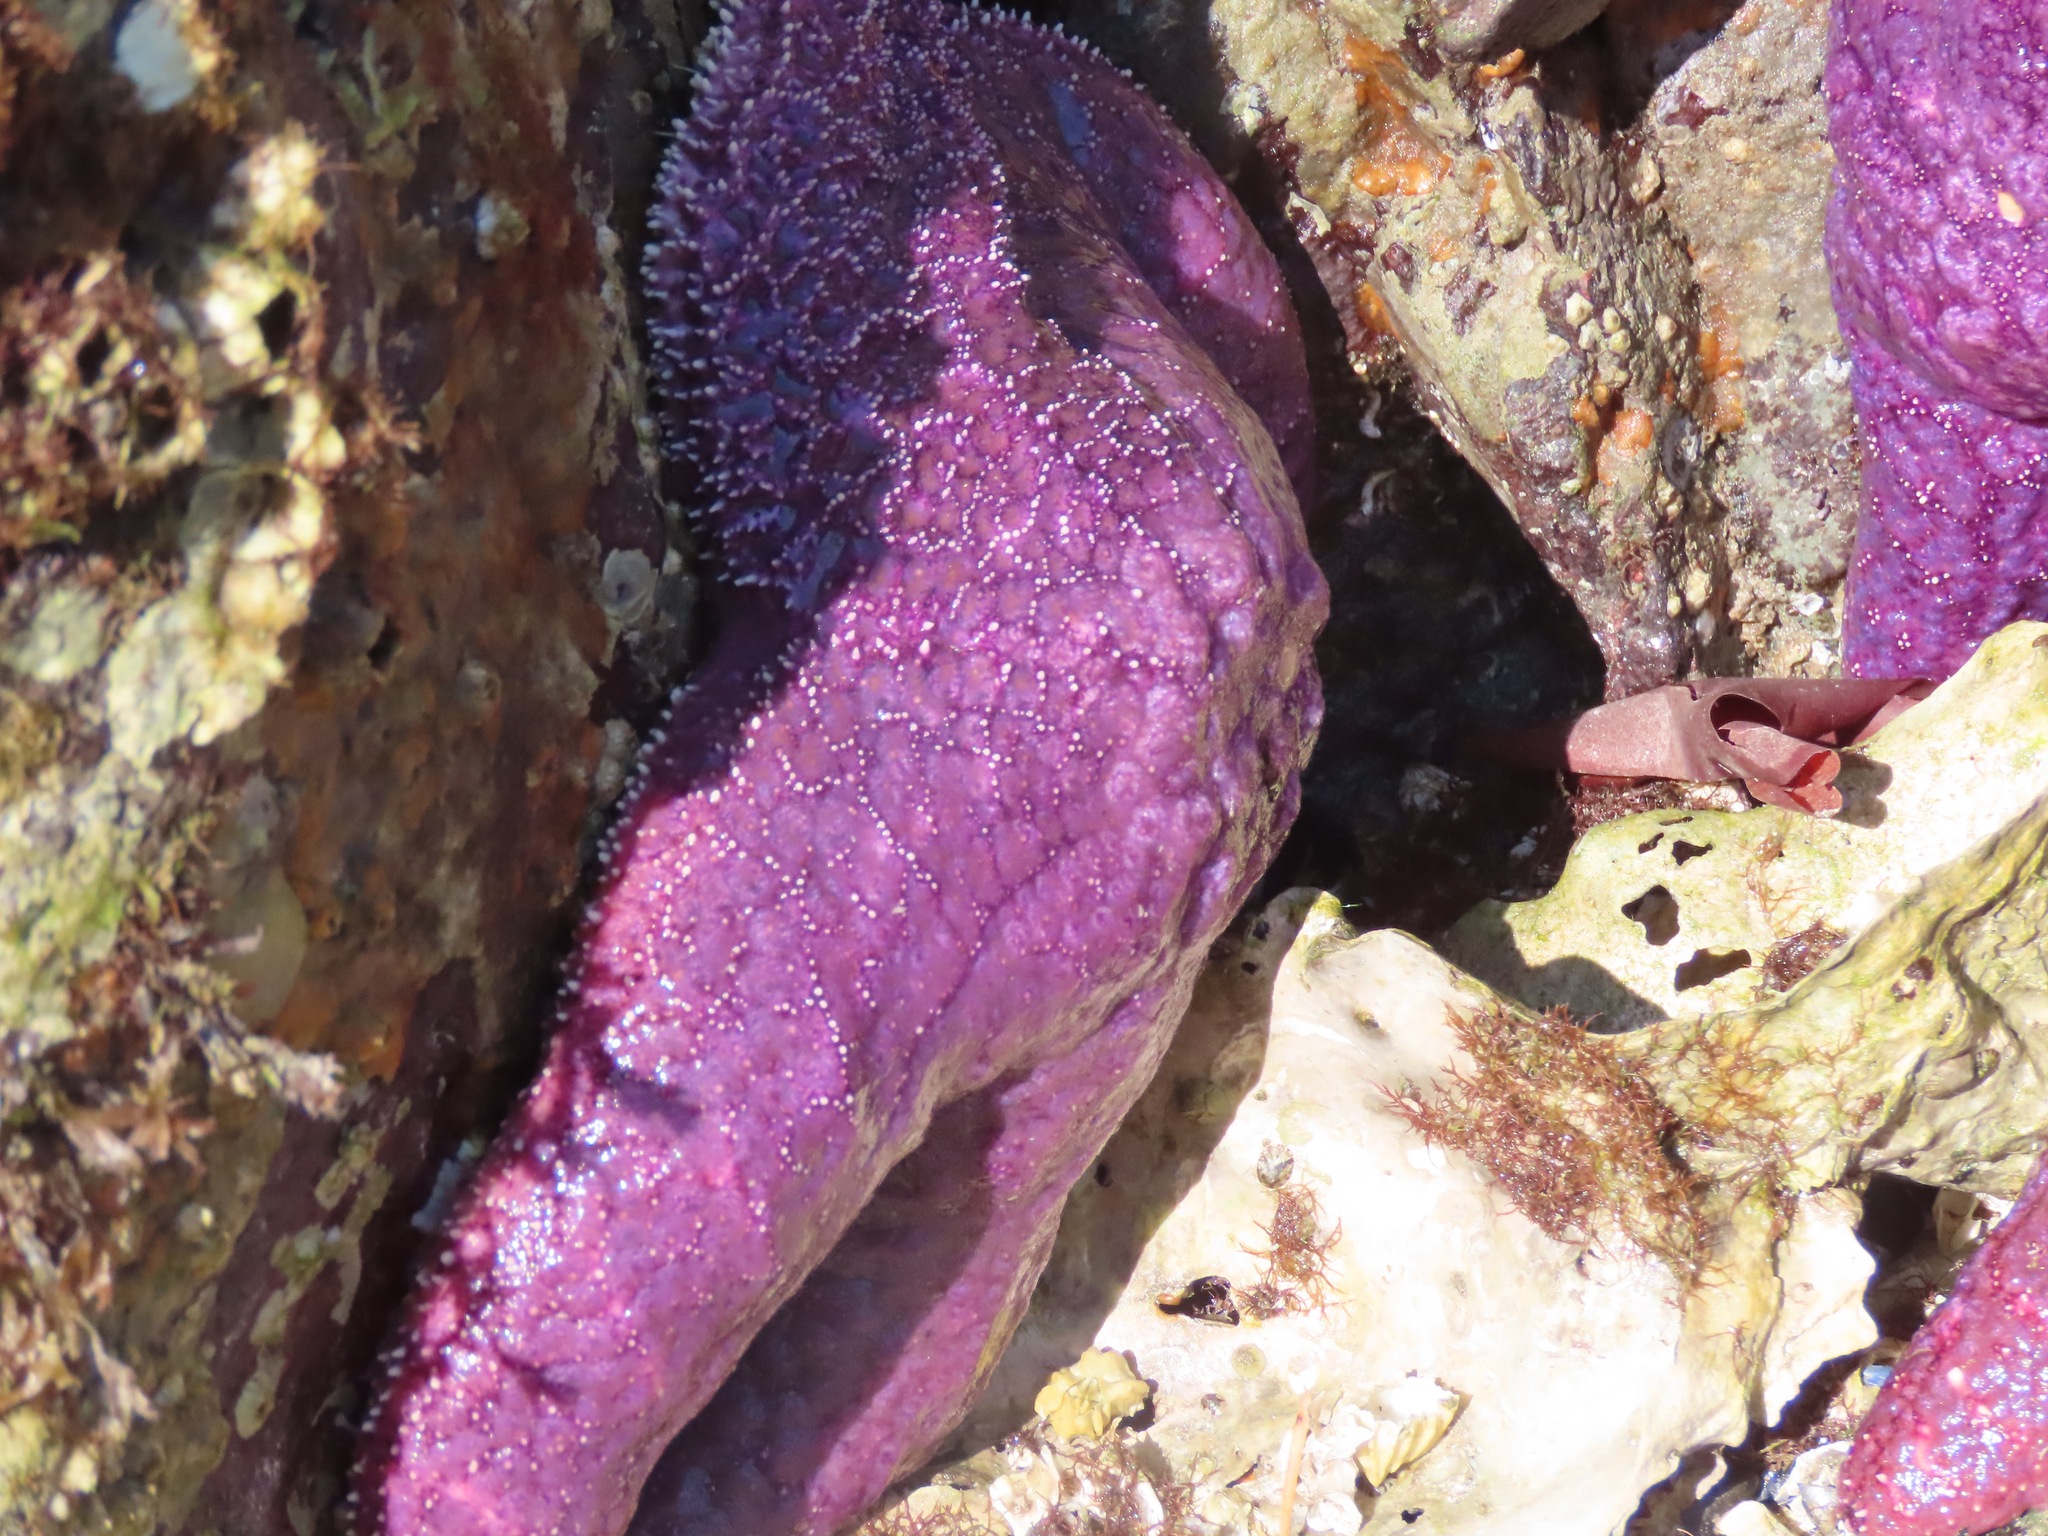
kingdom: Animalia
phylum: Echinodermata
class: Asteroidea
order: Forcipulatida
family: Asteriidae
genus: Pisaster
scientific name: Pisaster ochraceus
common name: Ochre stars
